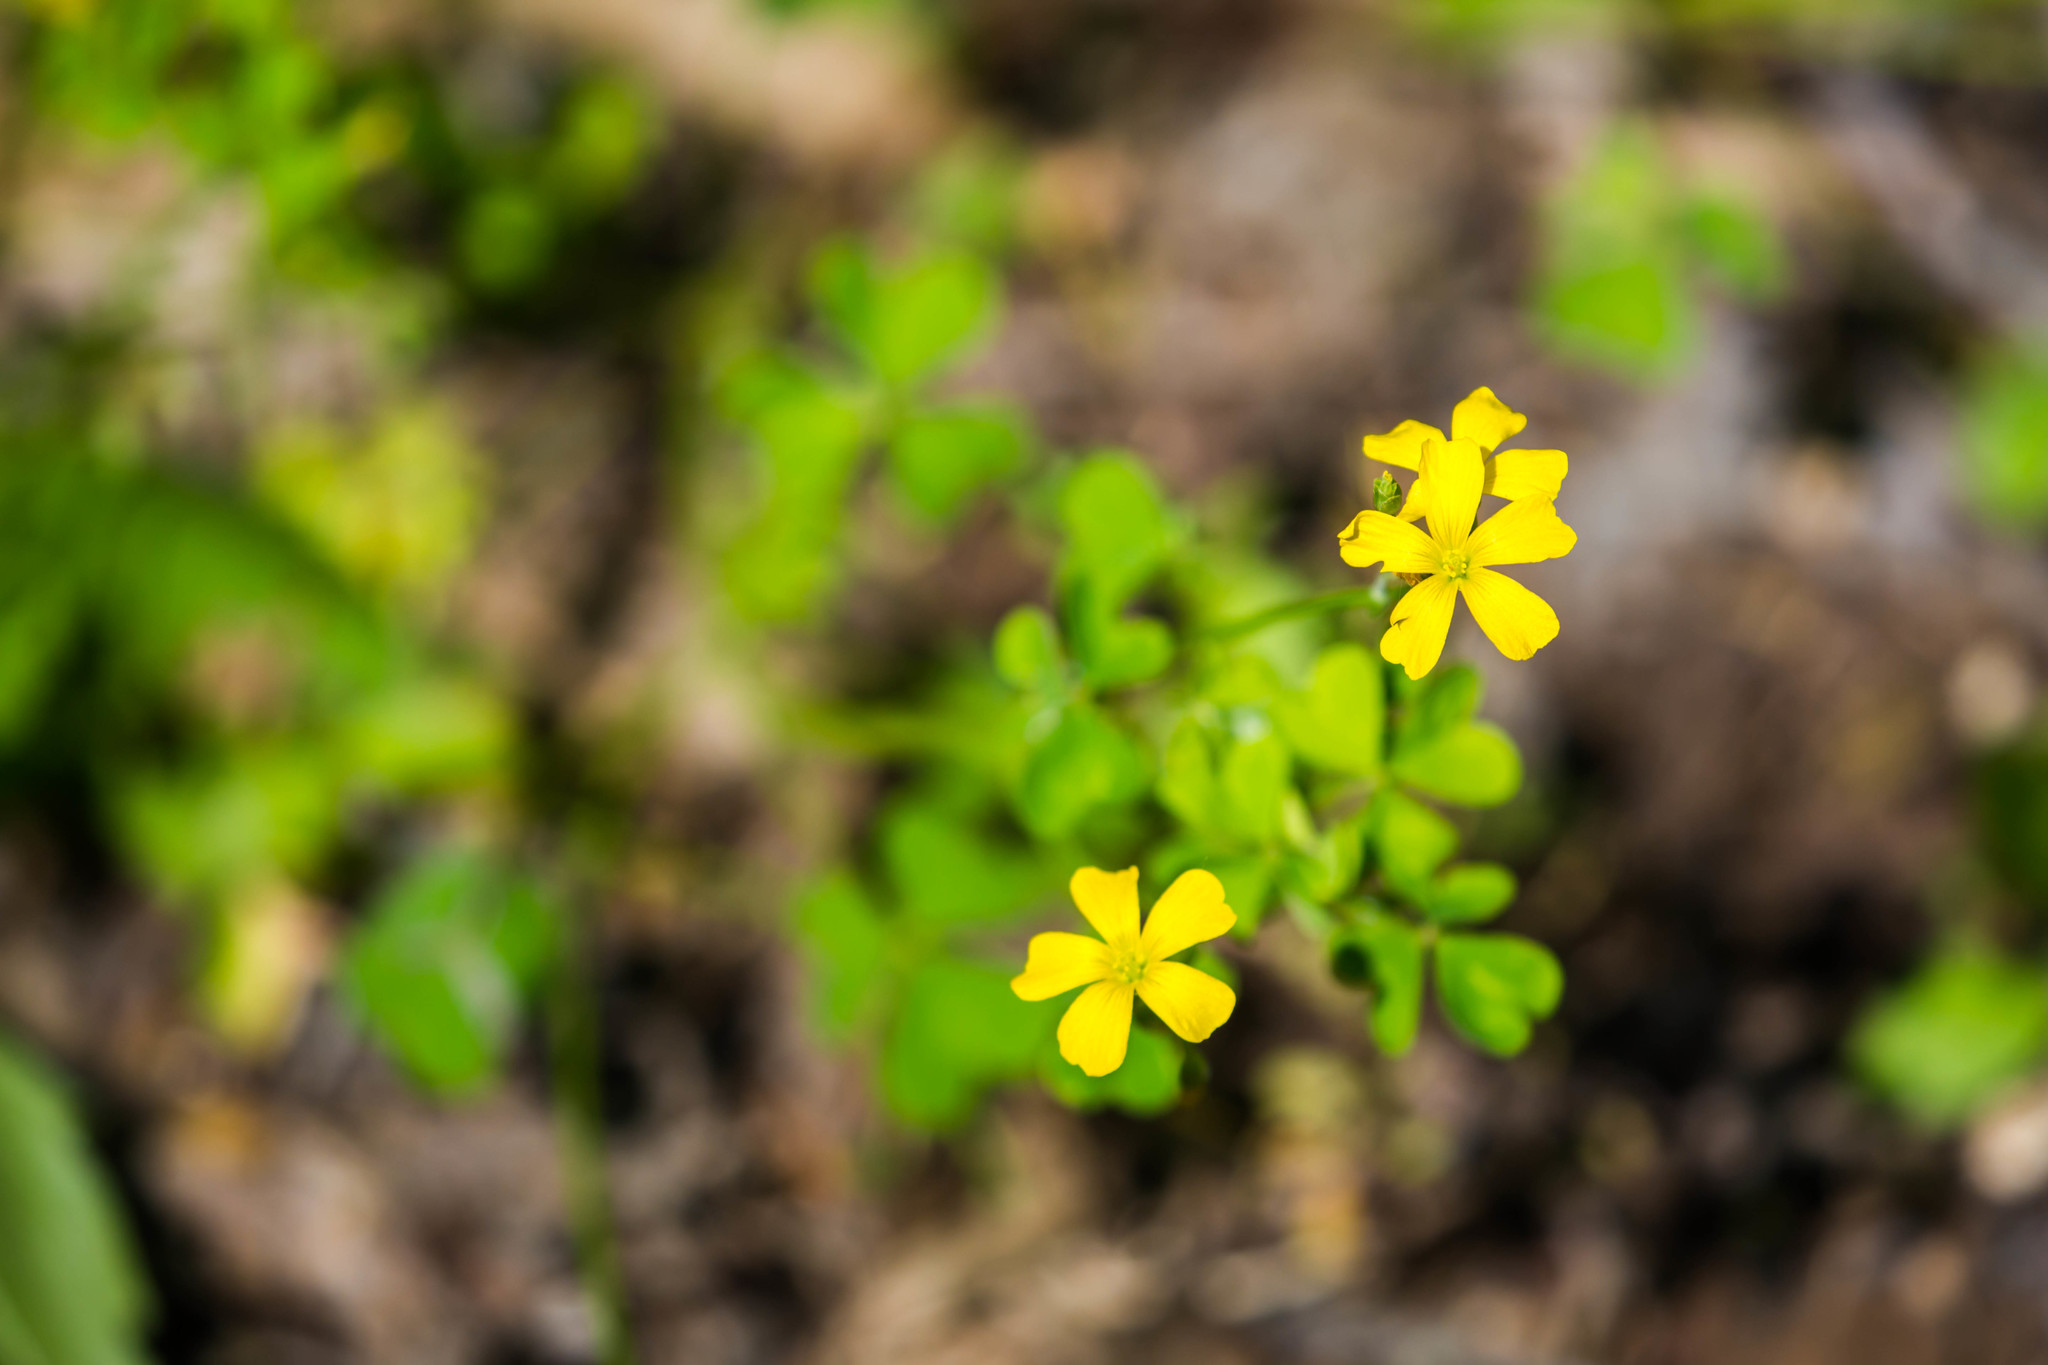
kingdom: Plantae
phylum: Tracheophyta
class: Magnoliopsida
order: Oxalidales
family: Oxalidaceae
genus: Oxalis
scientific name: Oxalis corniculata
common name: Procumbent yellow-sorrel
